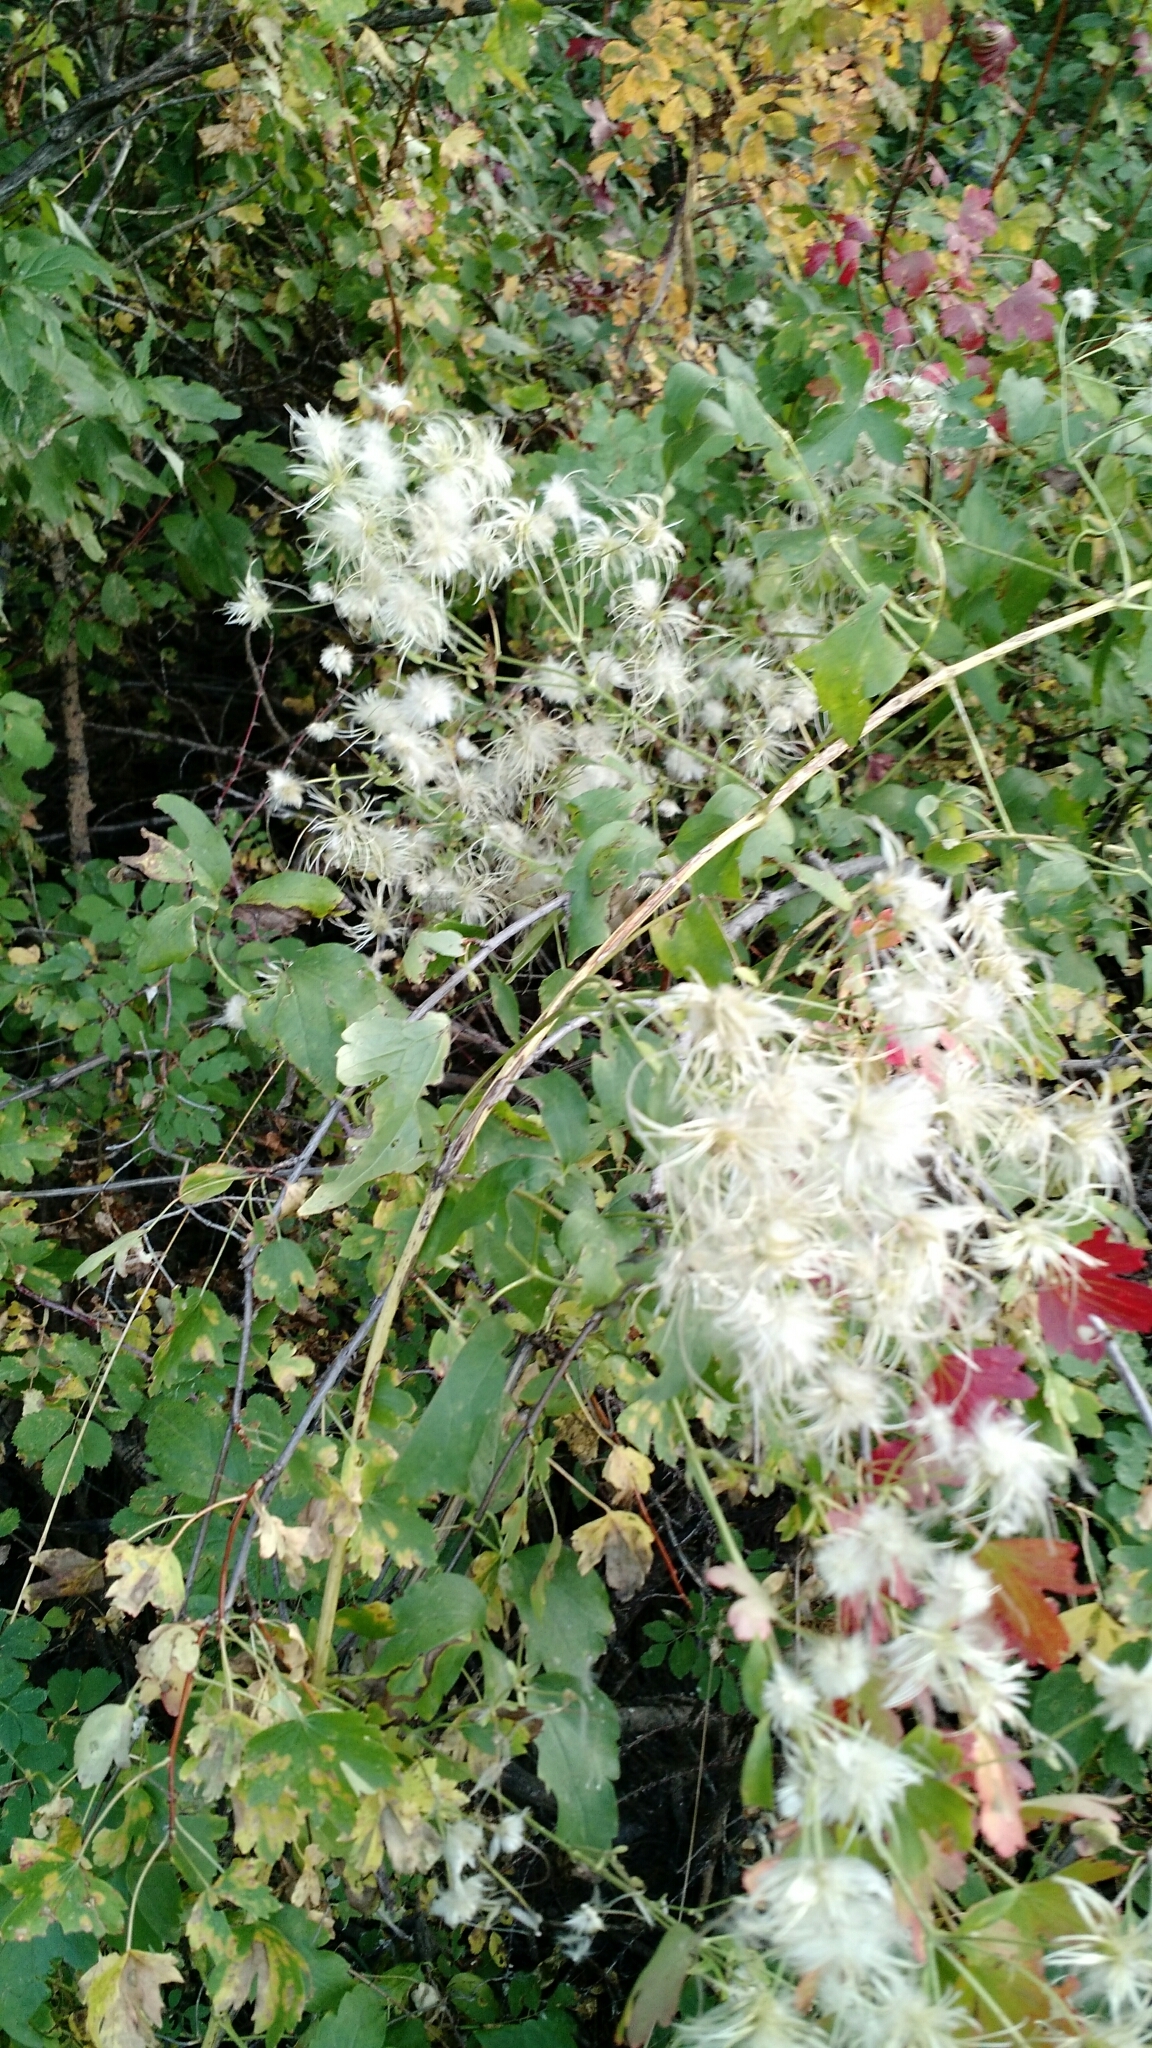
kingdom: Plantae
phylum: Tracheophyta
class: Magnoliopsida
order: Ranunculales
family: Ranunculaceae
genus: Clematis
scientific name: Clematis ligusticifolia
